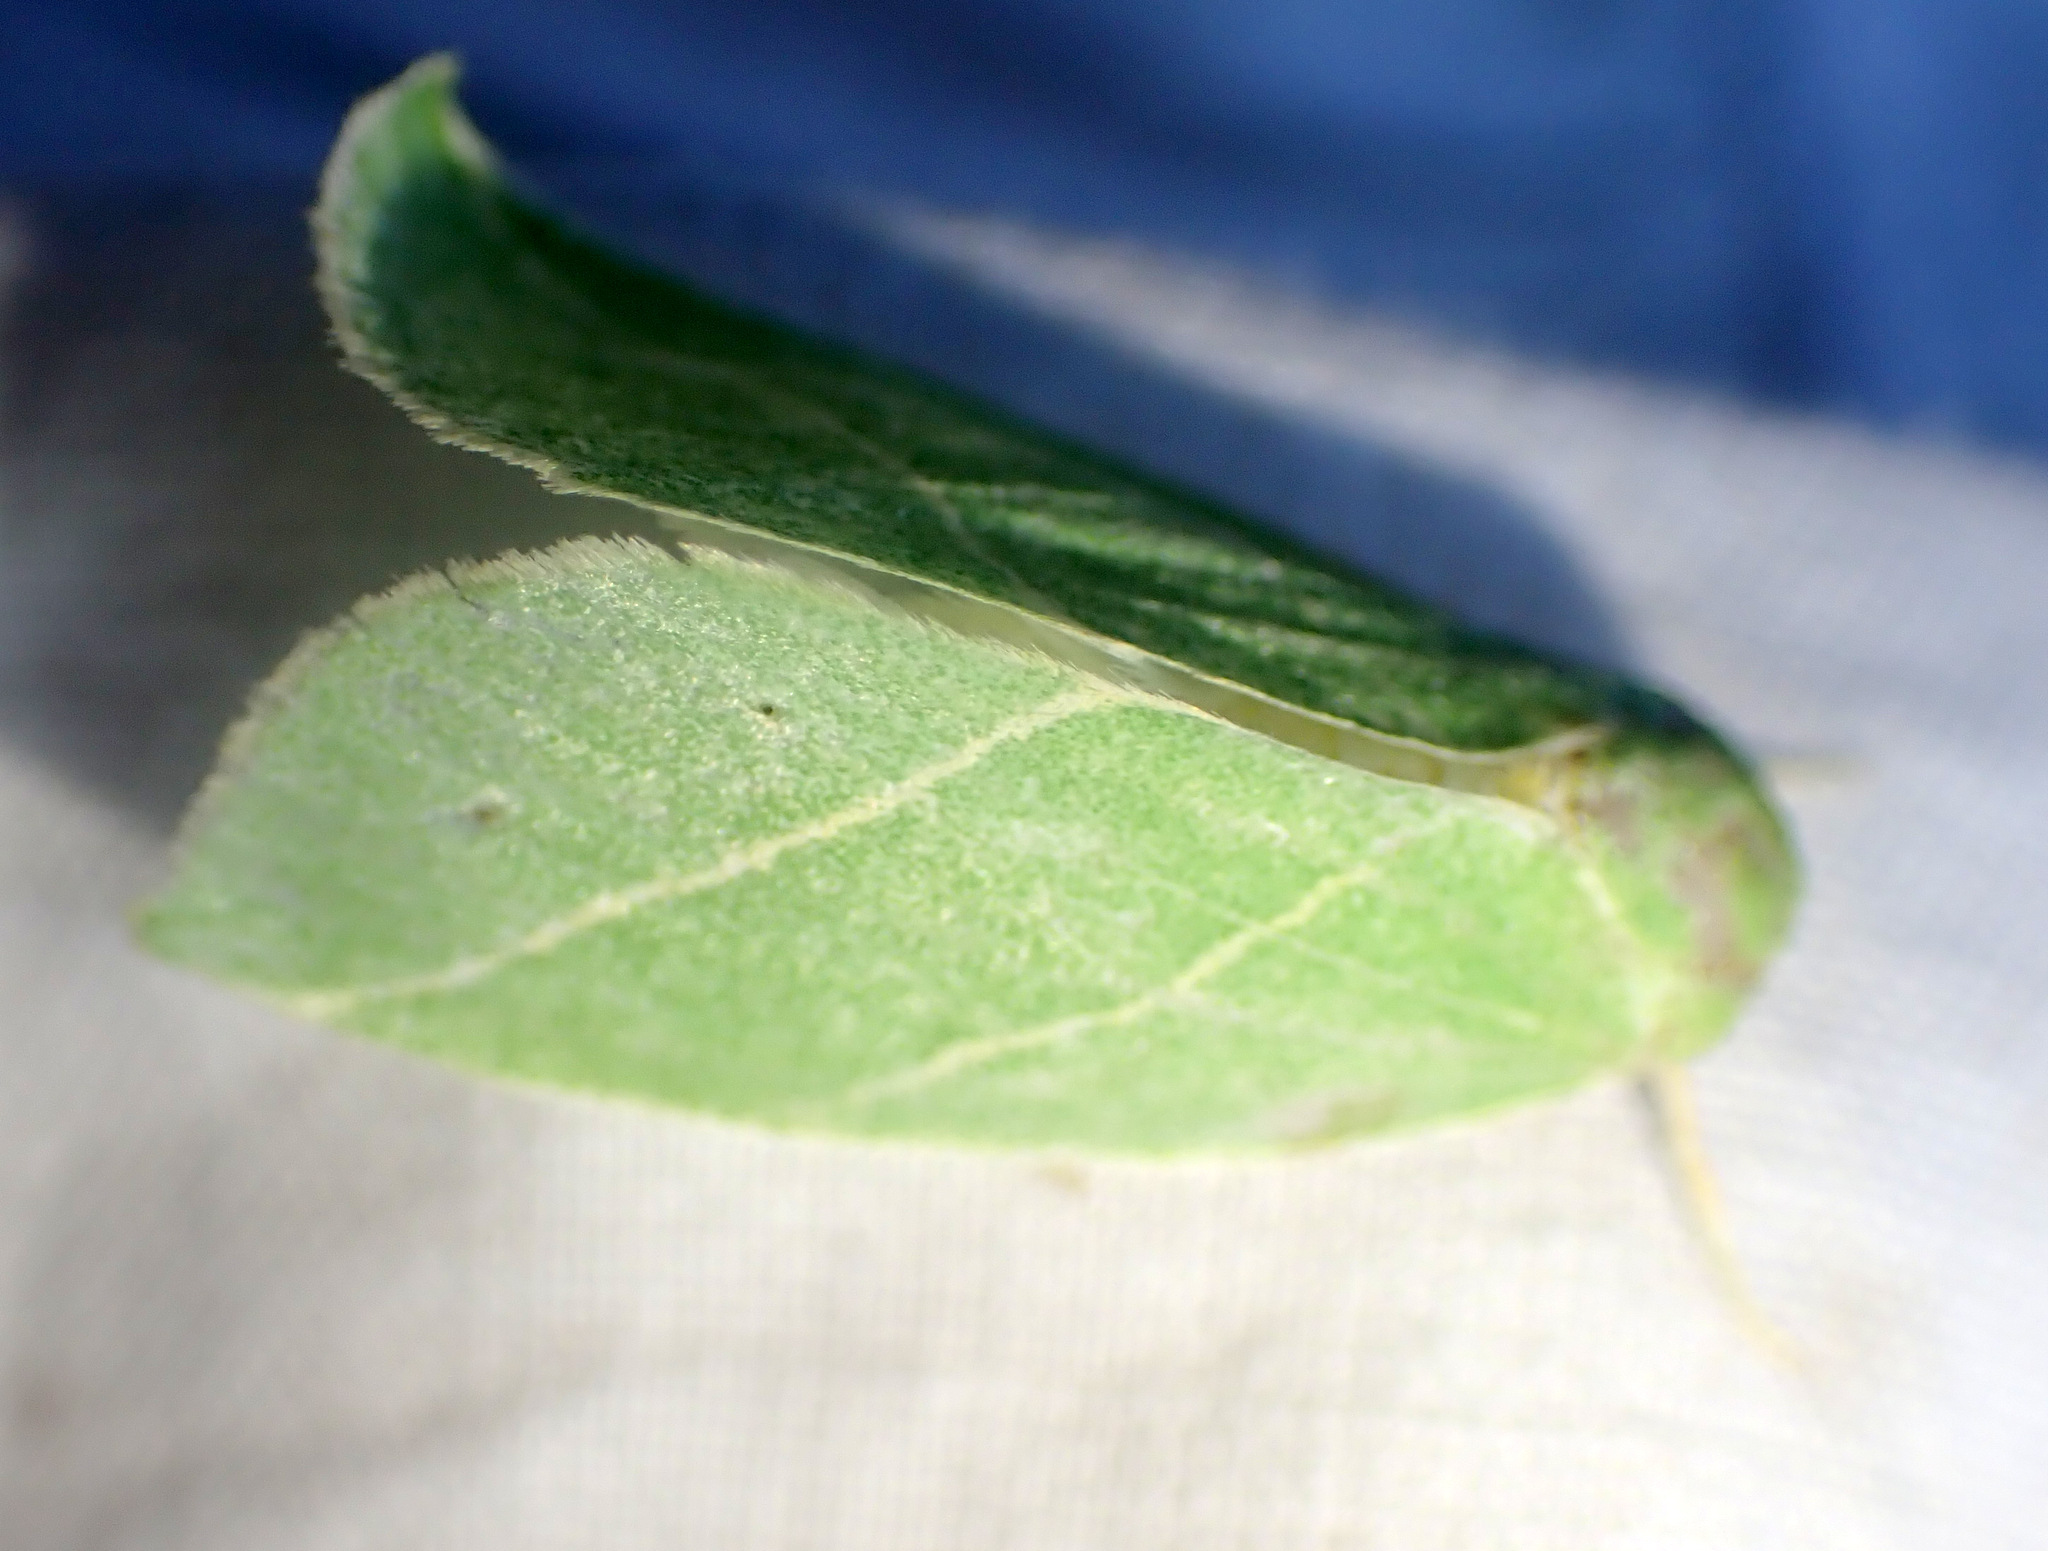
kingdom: Animalia
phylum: Arthropoda
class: Insecta
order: Lepidoptera
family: Nolidae
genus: Bena
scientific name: Bena bicolorana
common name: Scarce silver-lines
